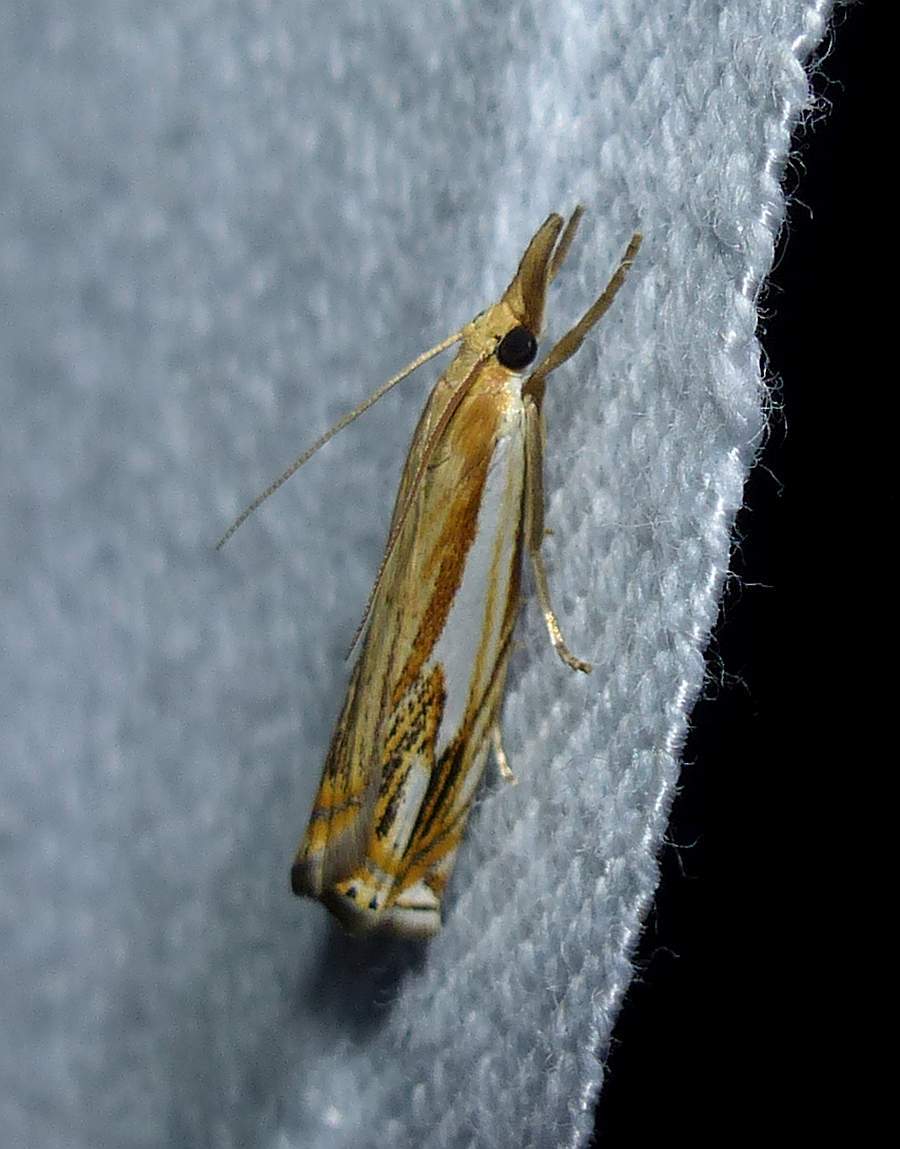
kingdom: Animalia
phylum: Arthropoda
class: Insecta
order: Lepidoptera
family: Crambidae
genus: Crambus
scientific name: Crambus agitatellus
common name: Double-banded grass-veneer
